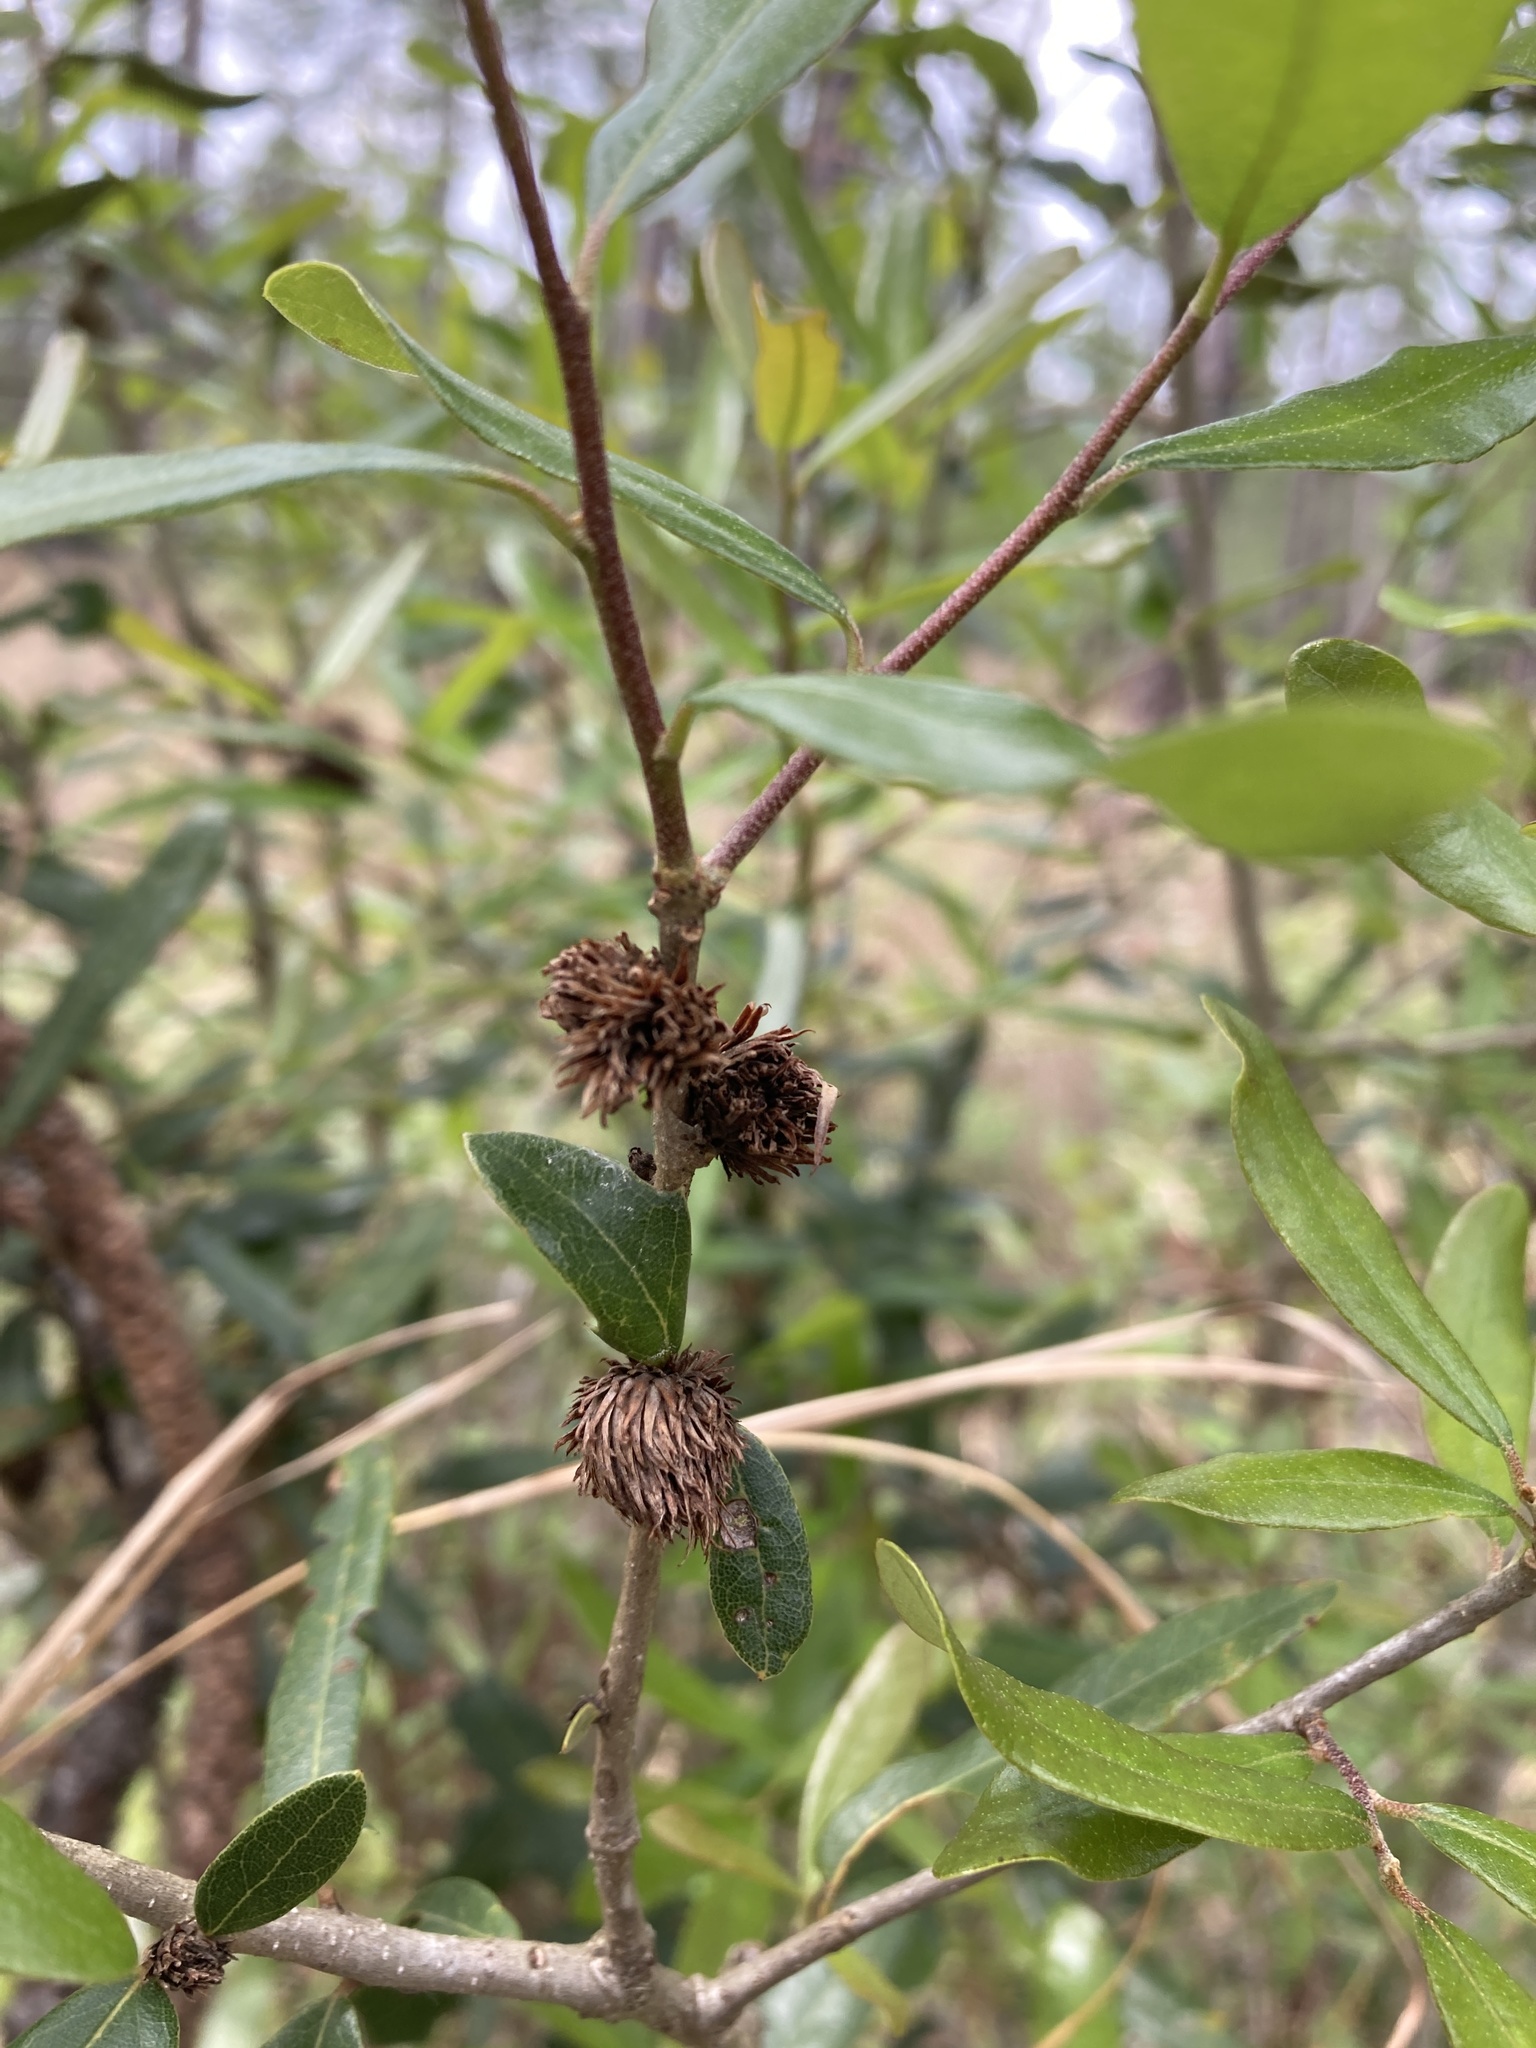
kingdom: Animalia
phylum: Arthropoda
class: Insecta
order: Hymenoptera
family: Cynipidae
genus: Andricus
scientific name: Andricus quercusfoliatus
